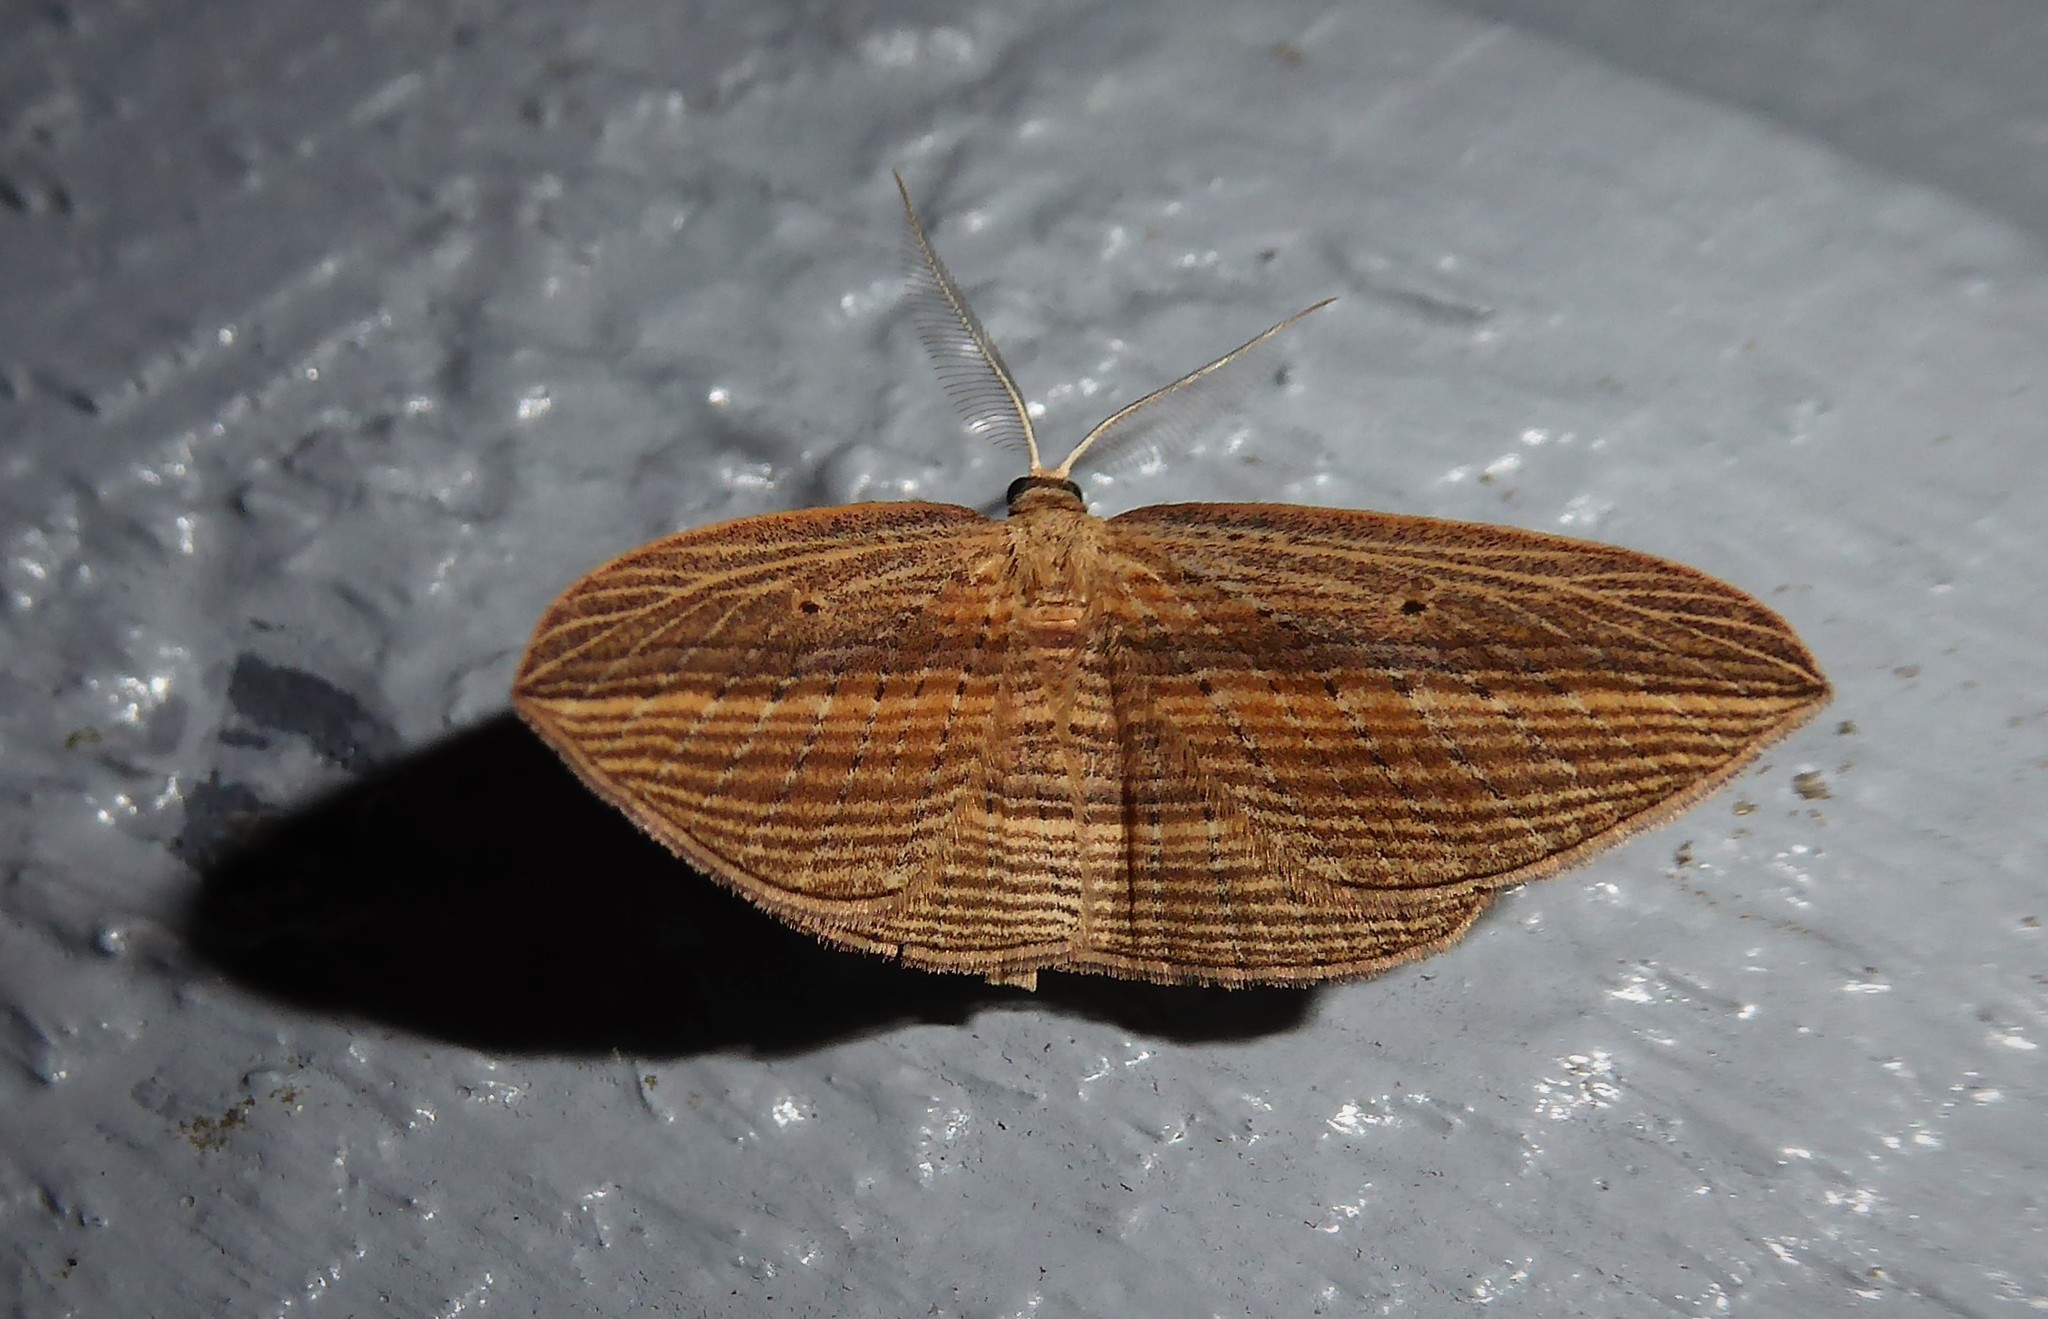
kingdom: Animalia
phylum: Arthropoda
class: Insecta
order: Lepidoptera
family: Geometridae
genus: Epiphryne
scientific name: Epiphryne verriculata
